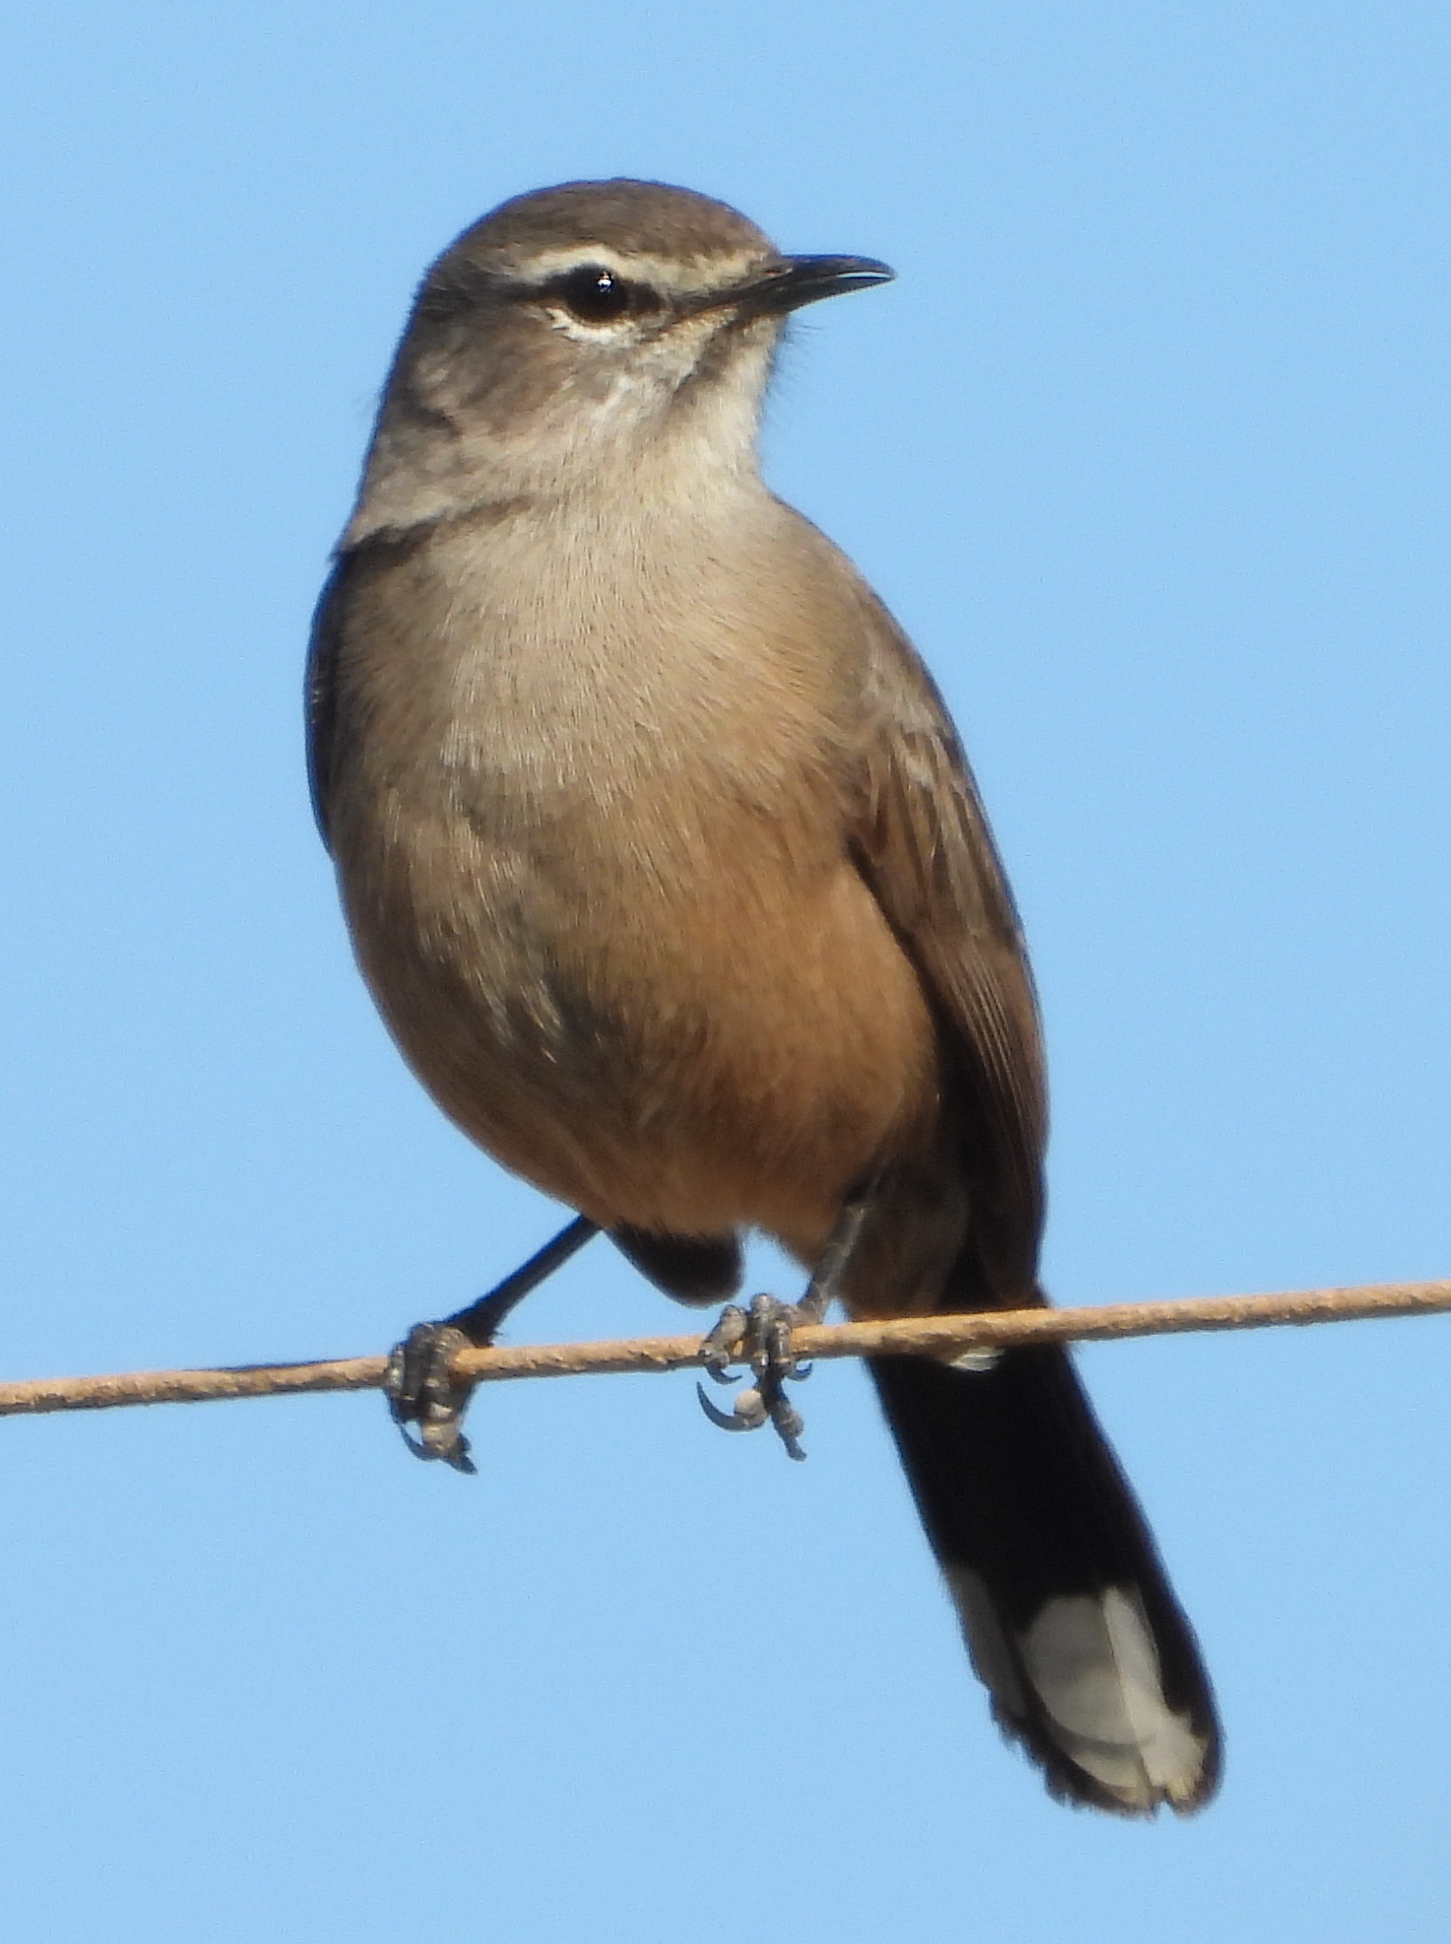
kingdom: Animalia
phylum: Chordata
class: Aves
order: Passeriformes
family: Muscicapidae
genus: Erythropygia
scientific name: Erythropygia coryphoeus
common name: Karoo scrub robin
